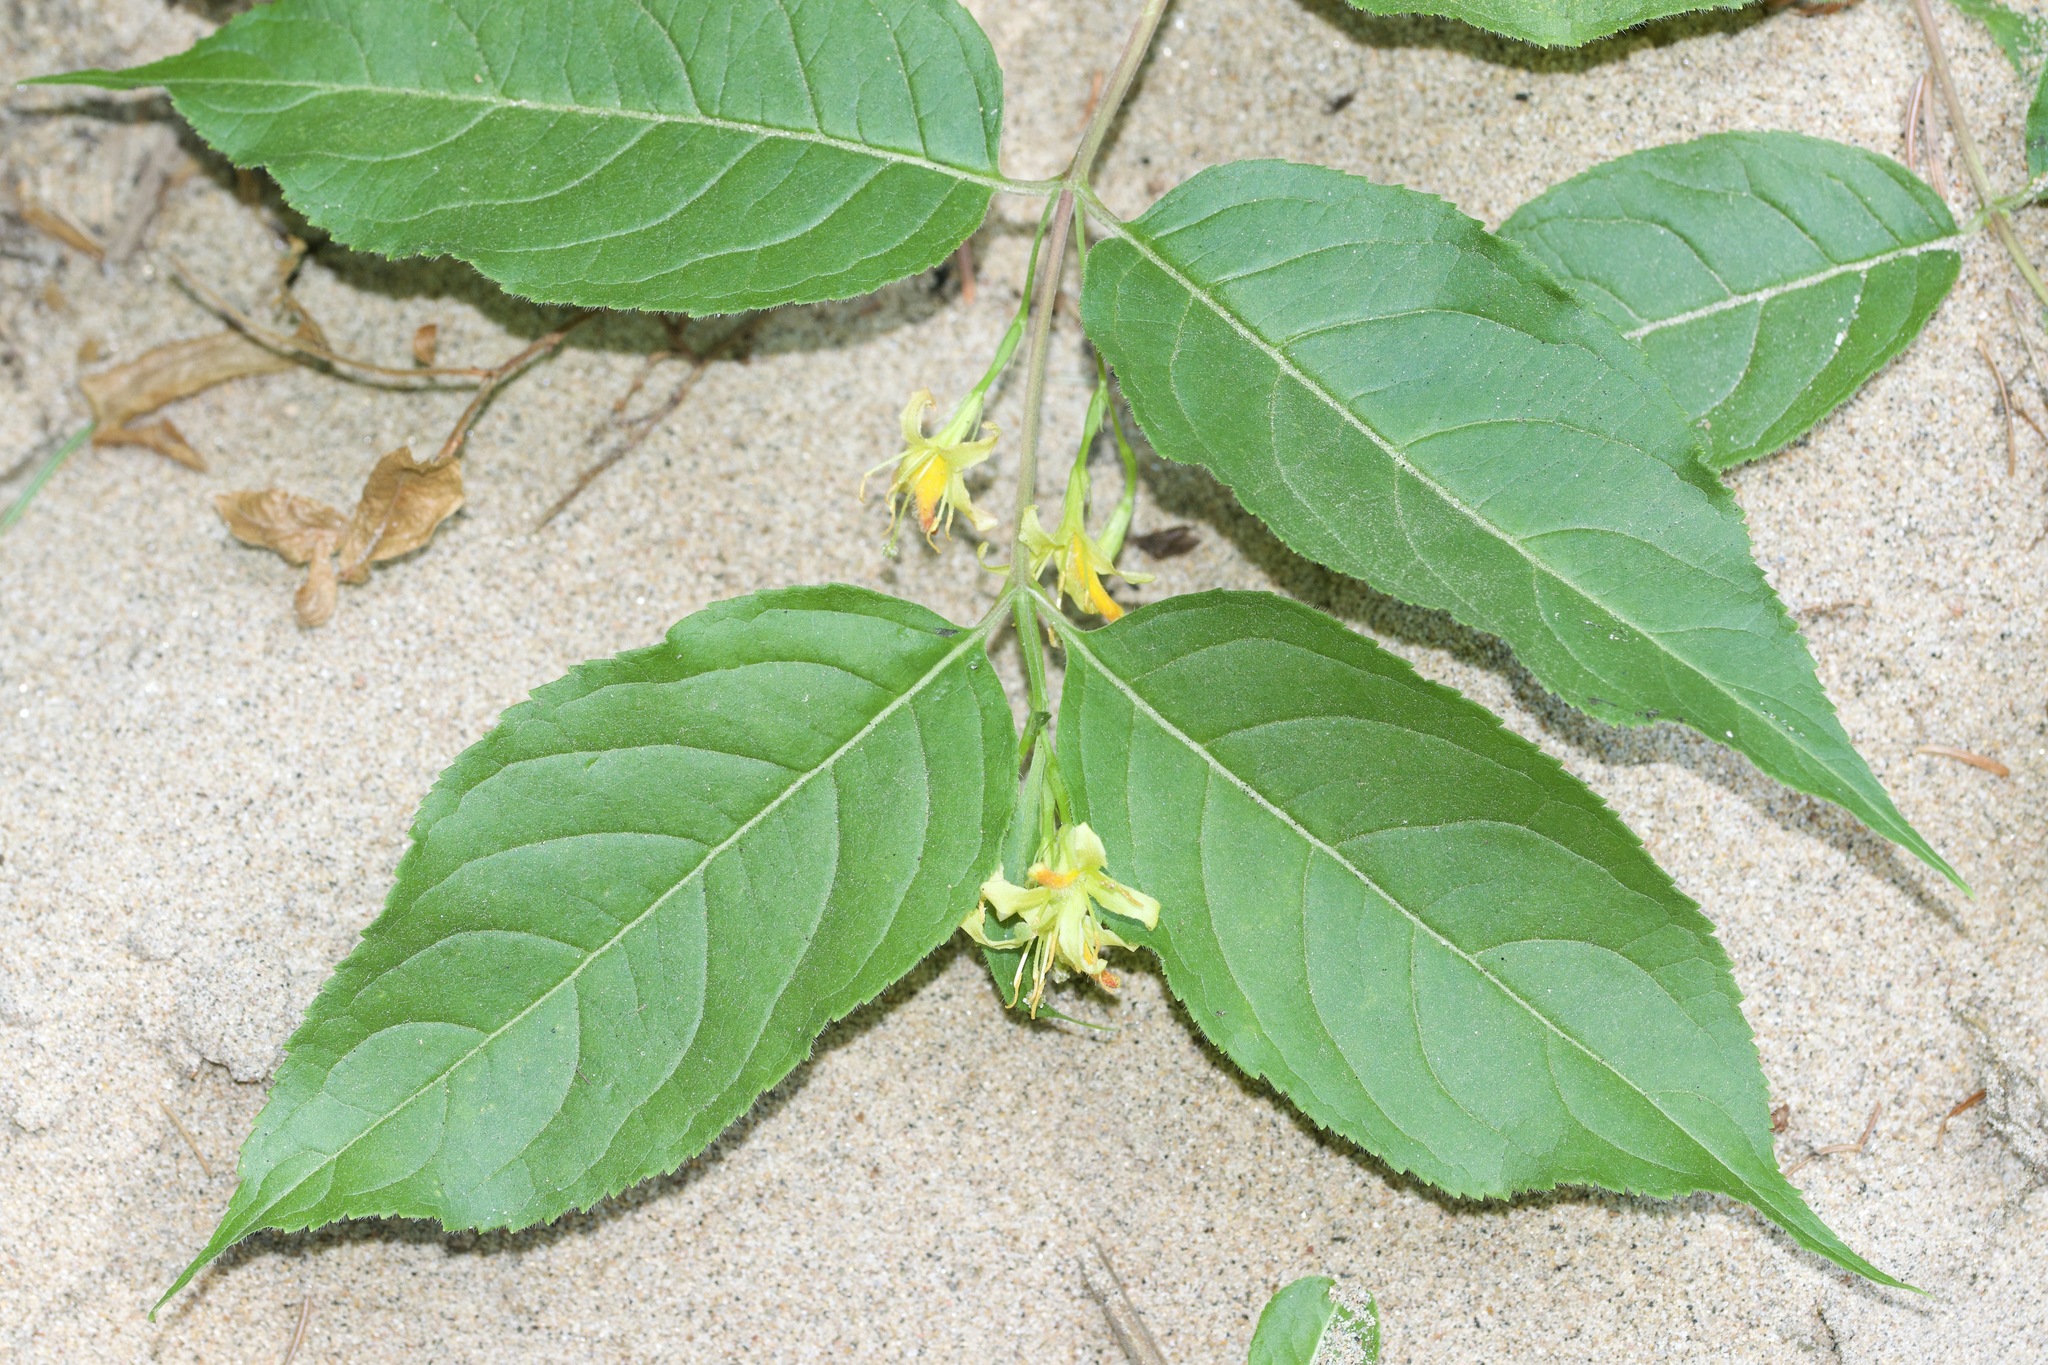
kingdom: Plantae
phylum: Tracheophyta
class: Magnoliopsida
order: Dipsacales
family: Caprifoliaceae
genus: Diervilla
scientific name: Diervilla lonicera
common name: Bush-honeysuckle
